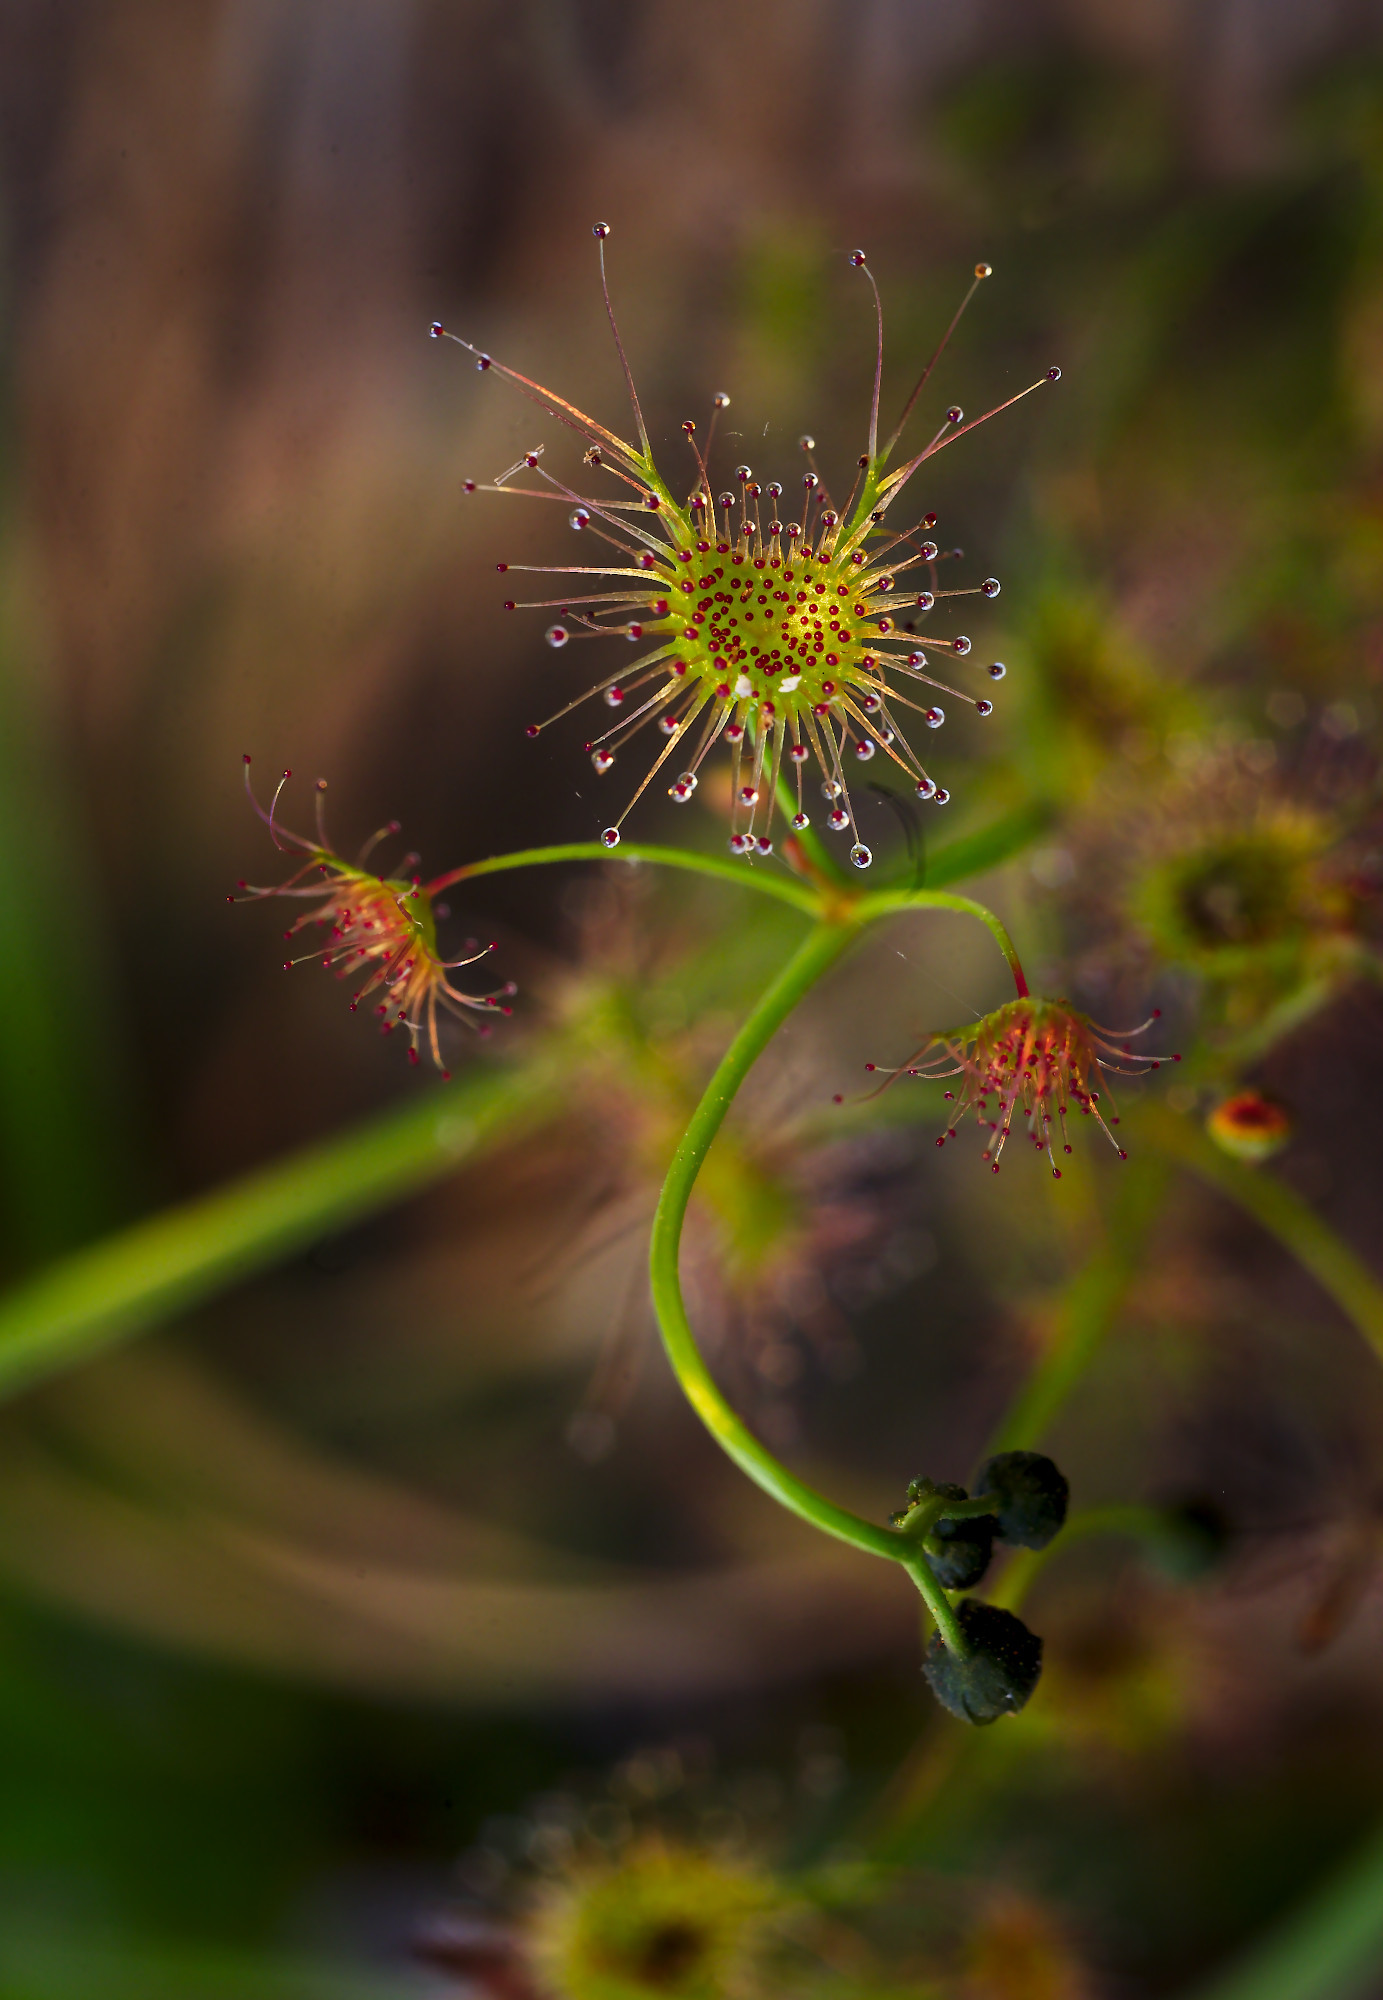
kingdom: Plantae
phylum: Tracheophyta
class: Magnoliopsida
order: Caryophyllales
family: Droseraceae
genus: Drosera
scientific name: Drosera peltata
